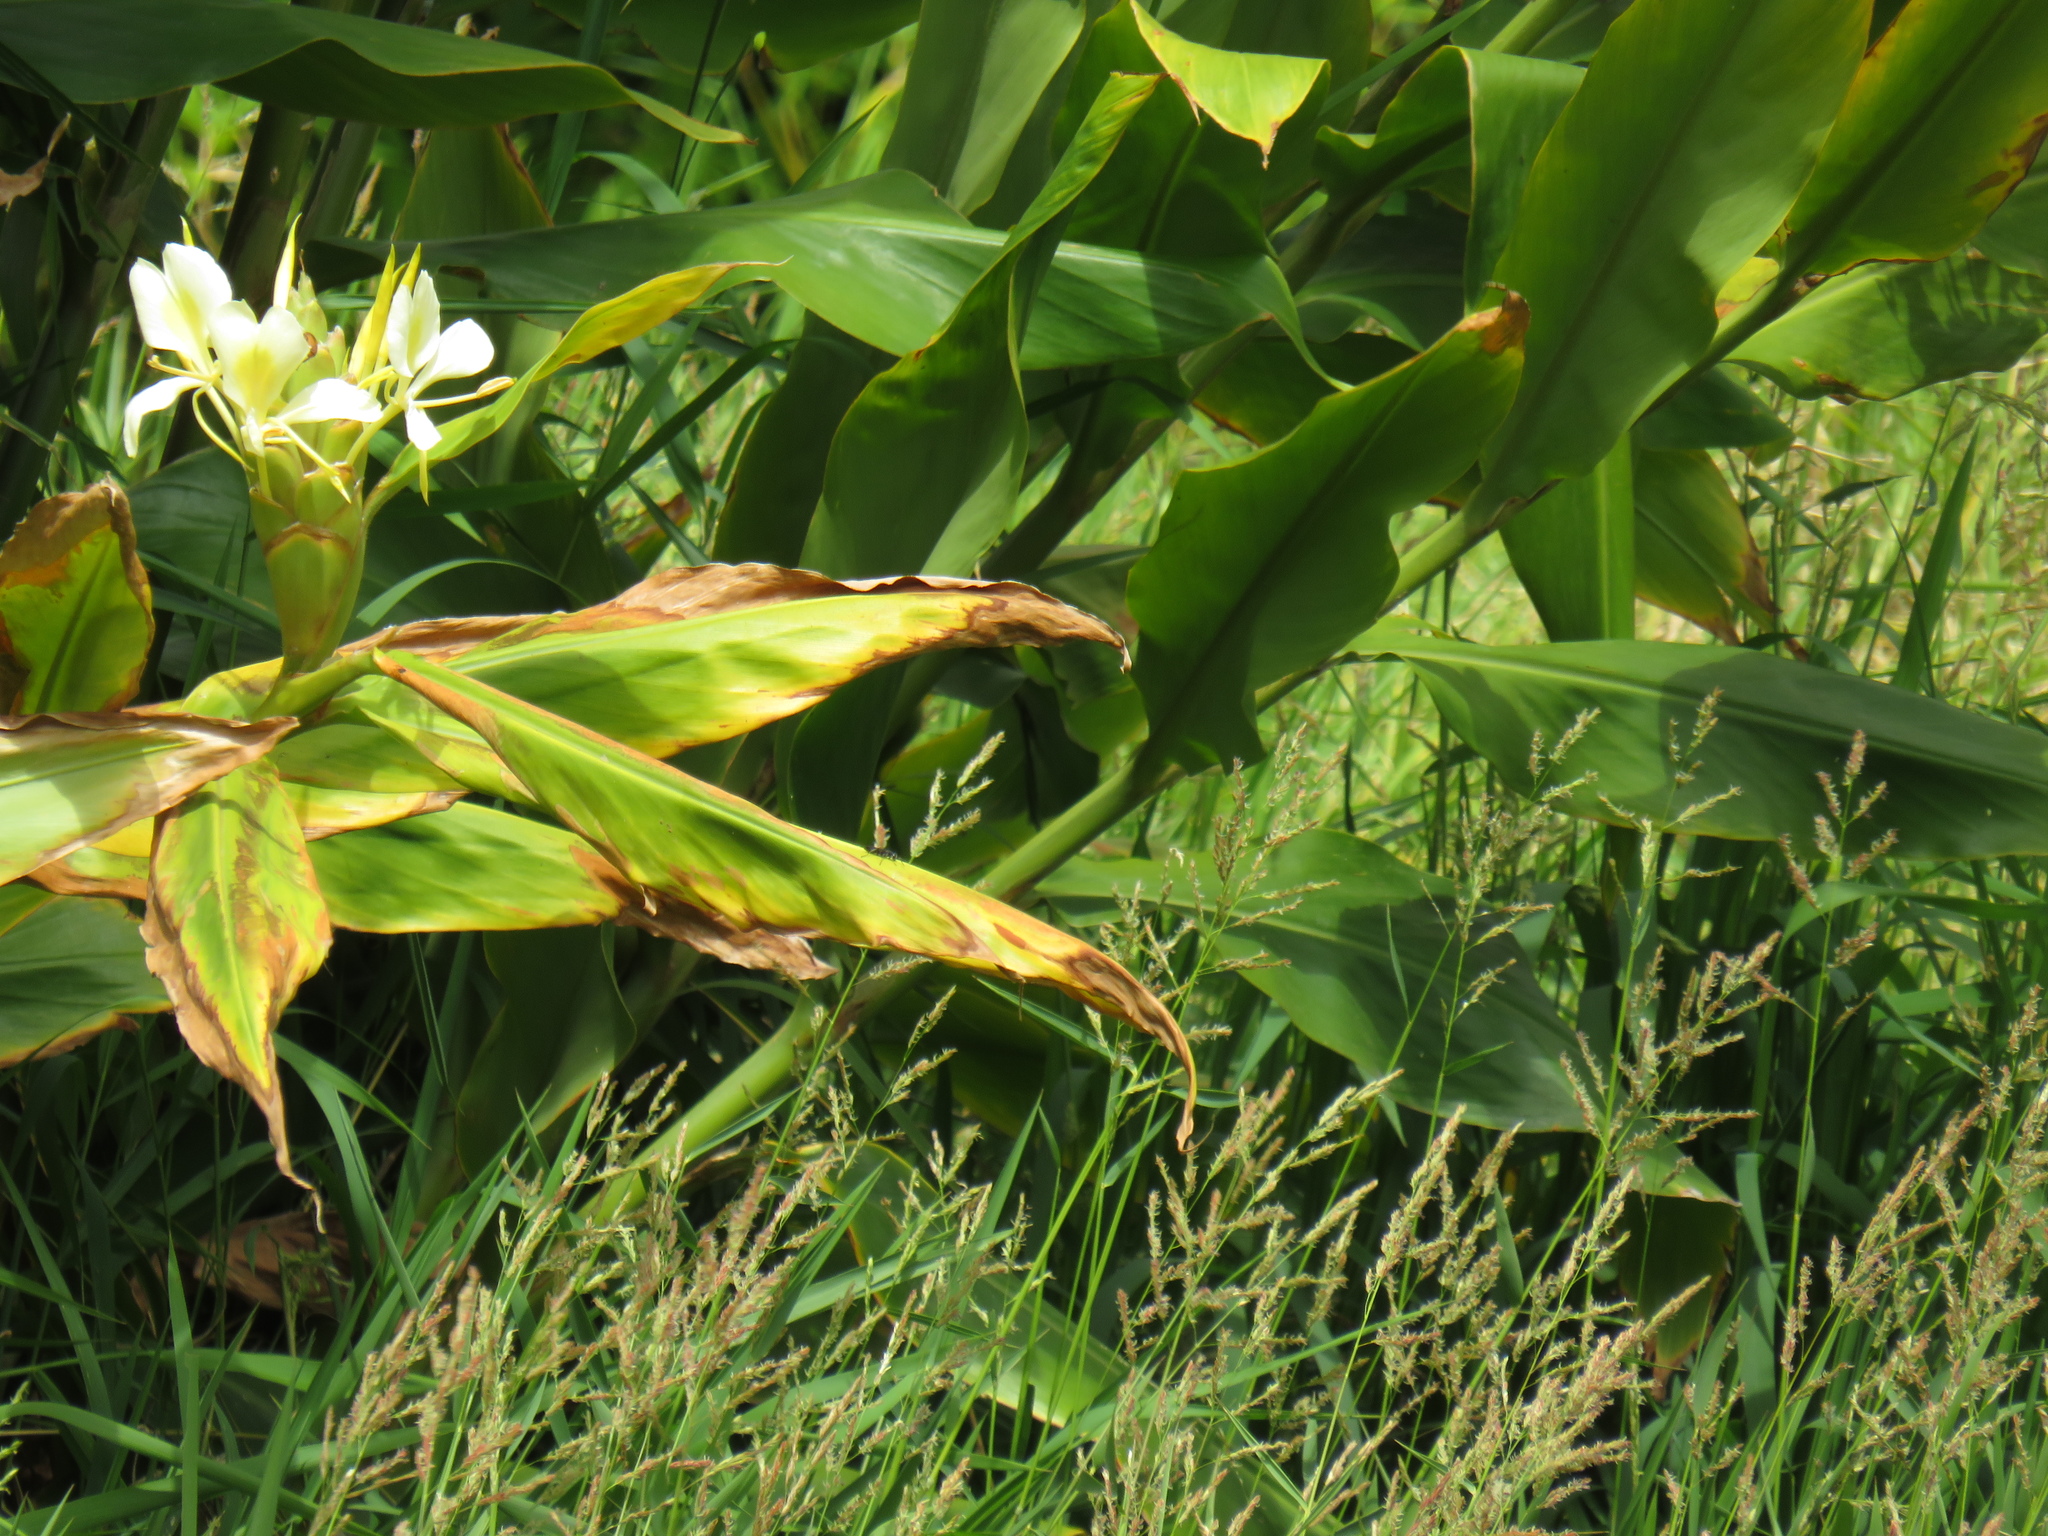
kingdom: Plantae
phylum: Tracheophyta
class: Liliopsida
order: Zingiberales
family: Zingiberaceae
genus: Hedychium
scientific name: Hedychium flavescens
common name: Yellow ginger
